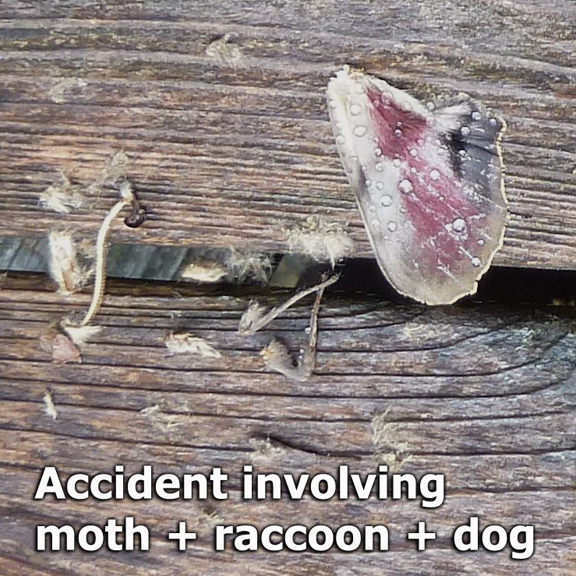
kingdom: Animalia
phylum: Arthropoda
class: Insecta
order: Lepidoptera
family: Sphingidae
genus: Pachysphinx
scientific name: Pachysphinx modesta
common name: Big poplar sphinx
